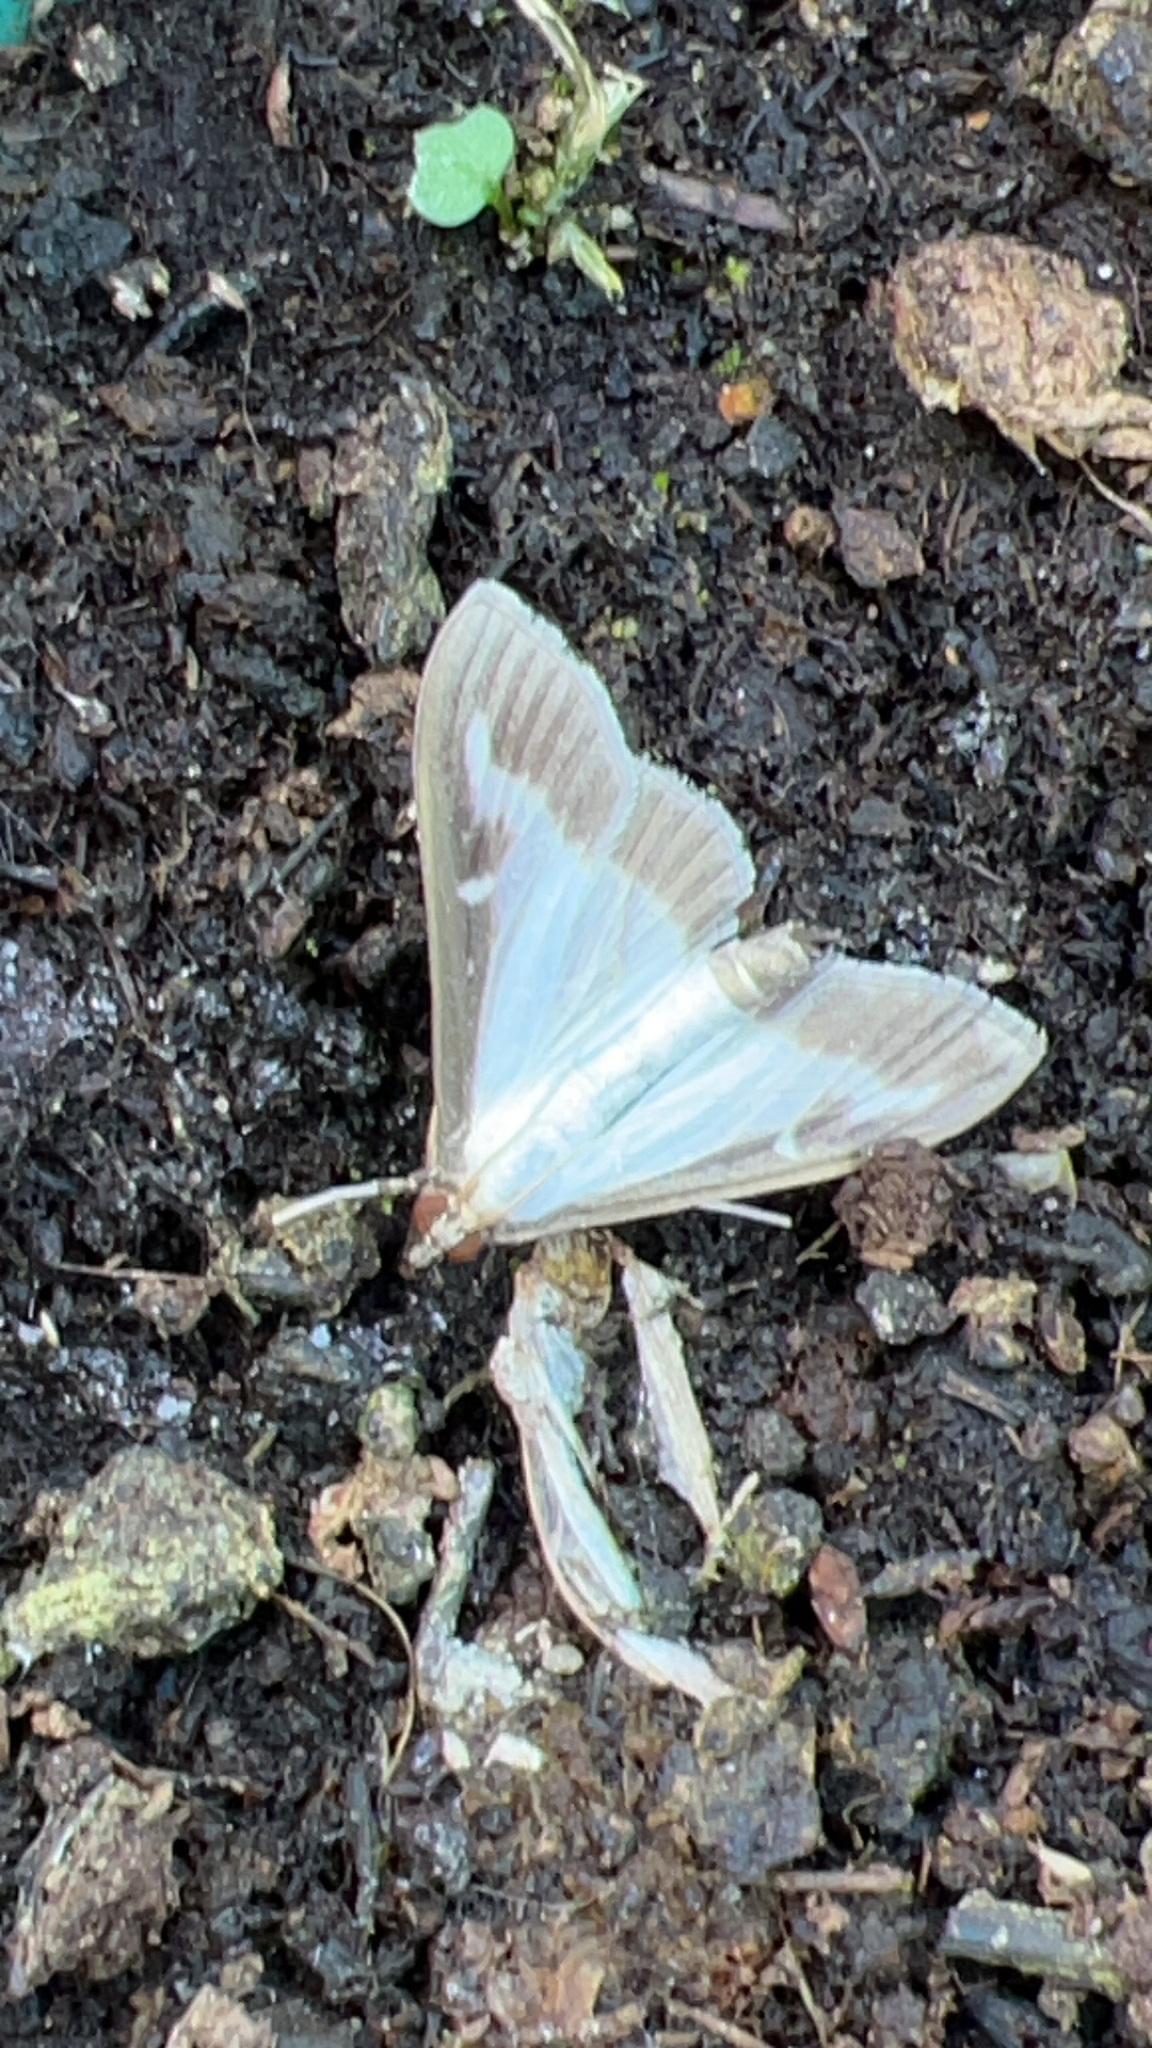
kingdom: Animalia
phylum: Arthropoda
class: Insecta
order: Lepidoptera
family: Crambidae
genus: Cydalima
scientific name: Cydalima perspectalis
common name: Box tree moth
